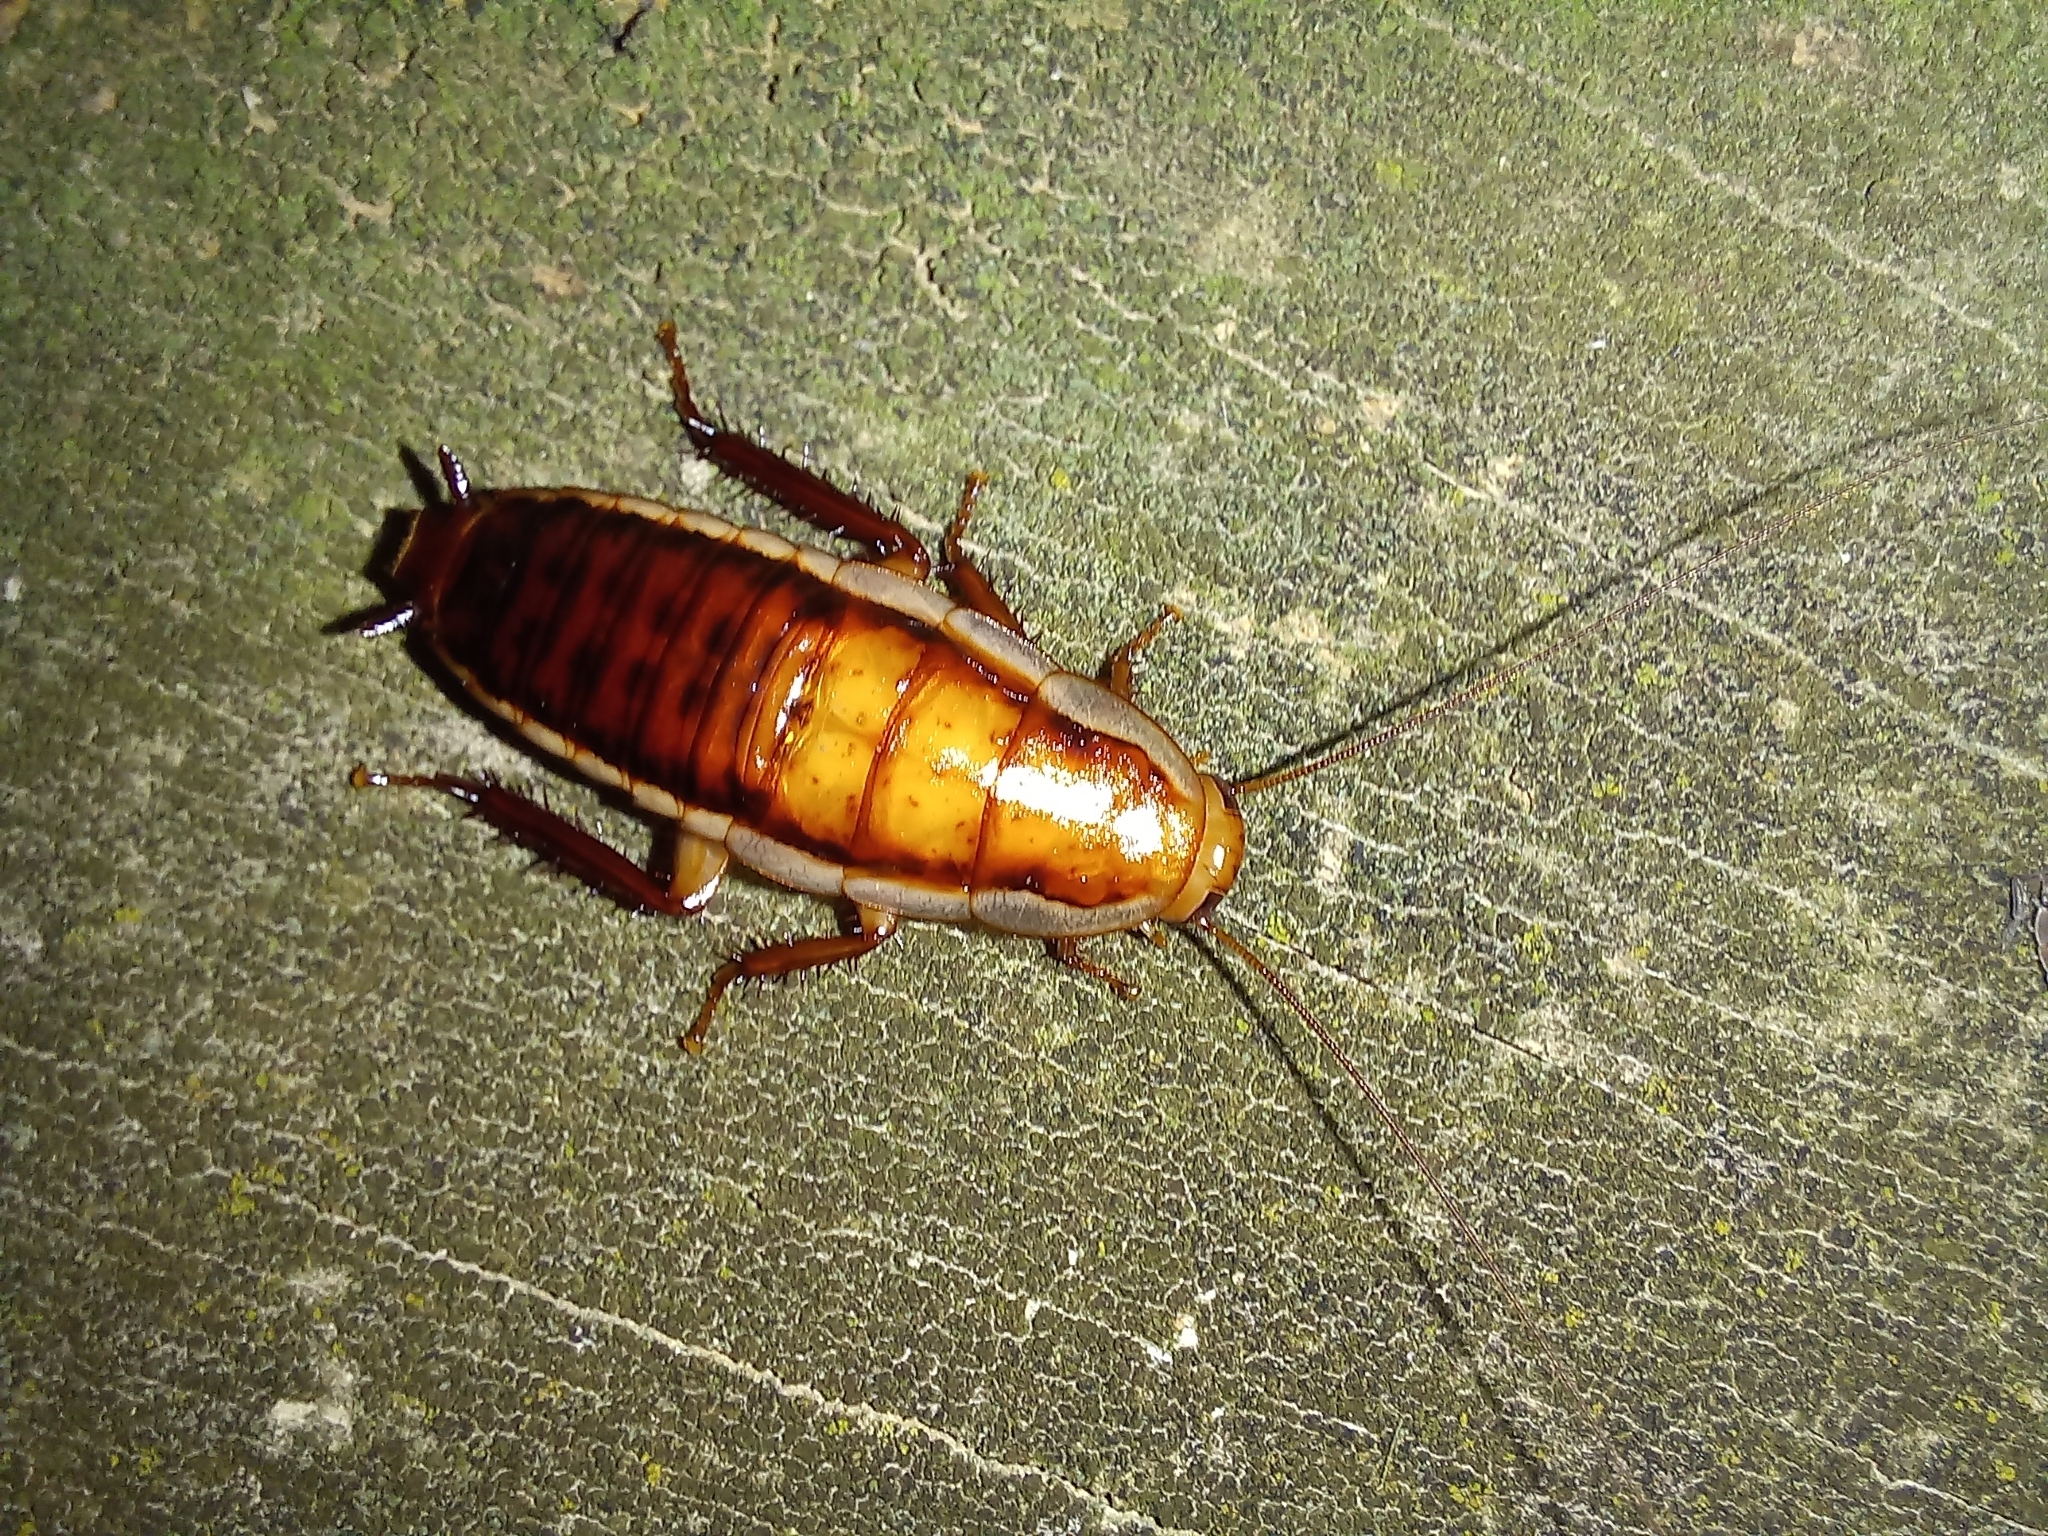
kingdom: Animalia
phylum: Arthropoda
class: Insecta
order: Blattodea
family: Blattidae
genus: Drymaplaneta
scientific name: Drymaplaneta heydeniana
